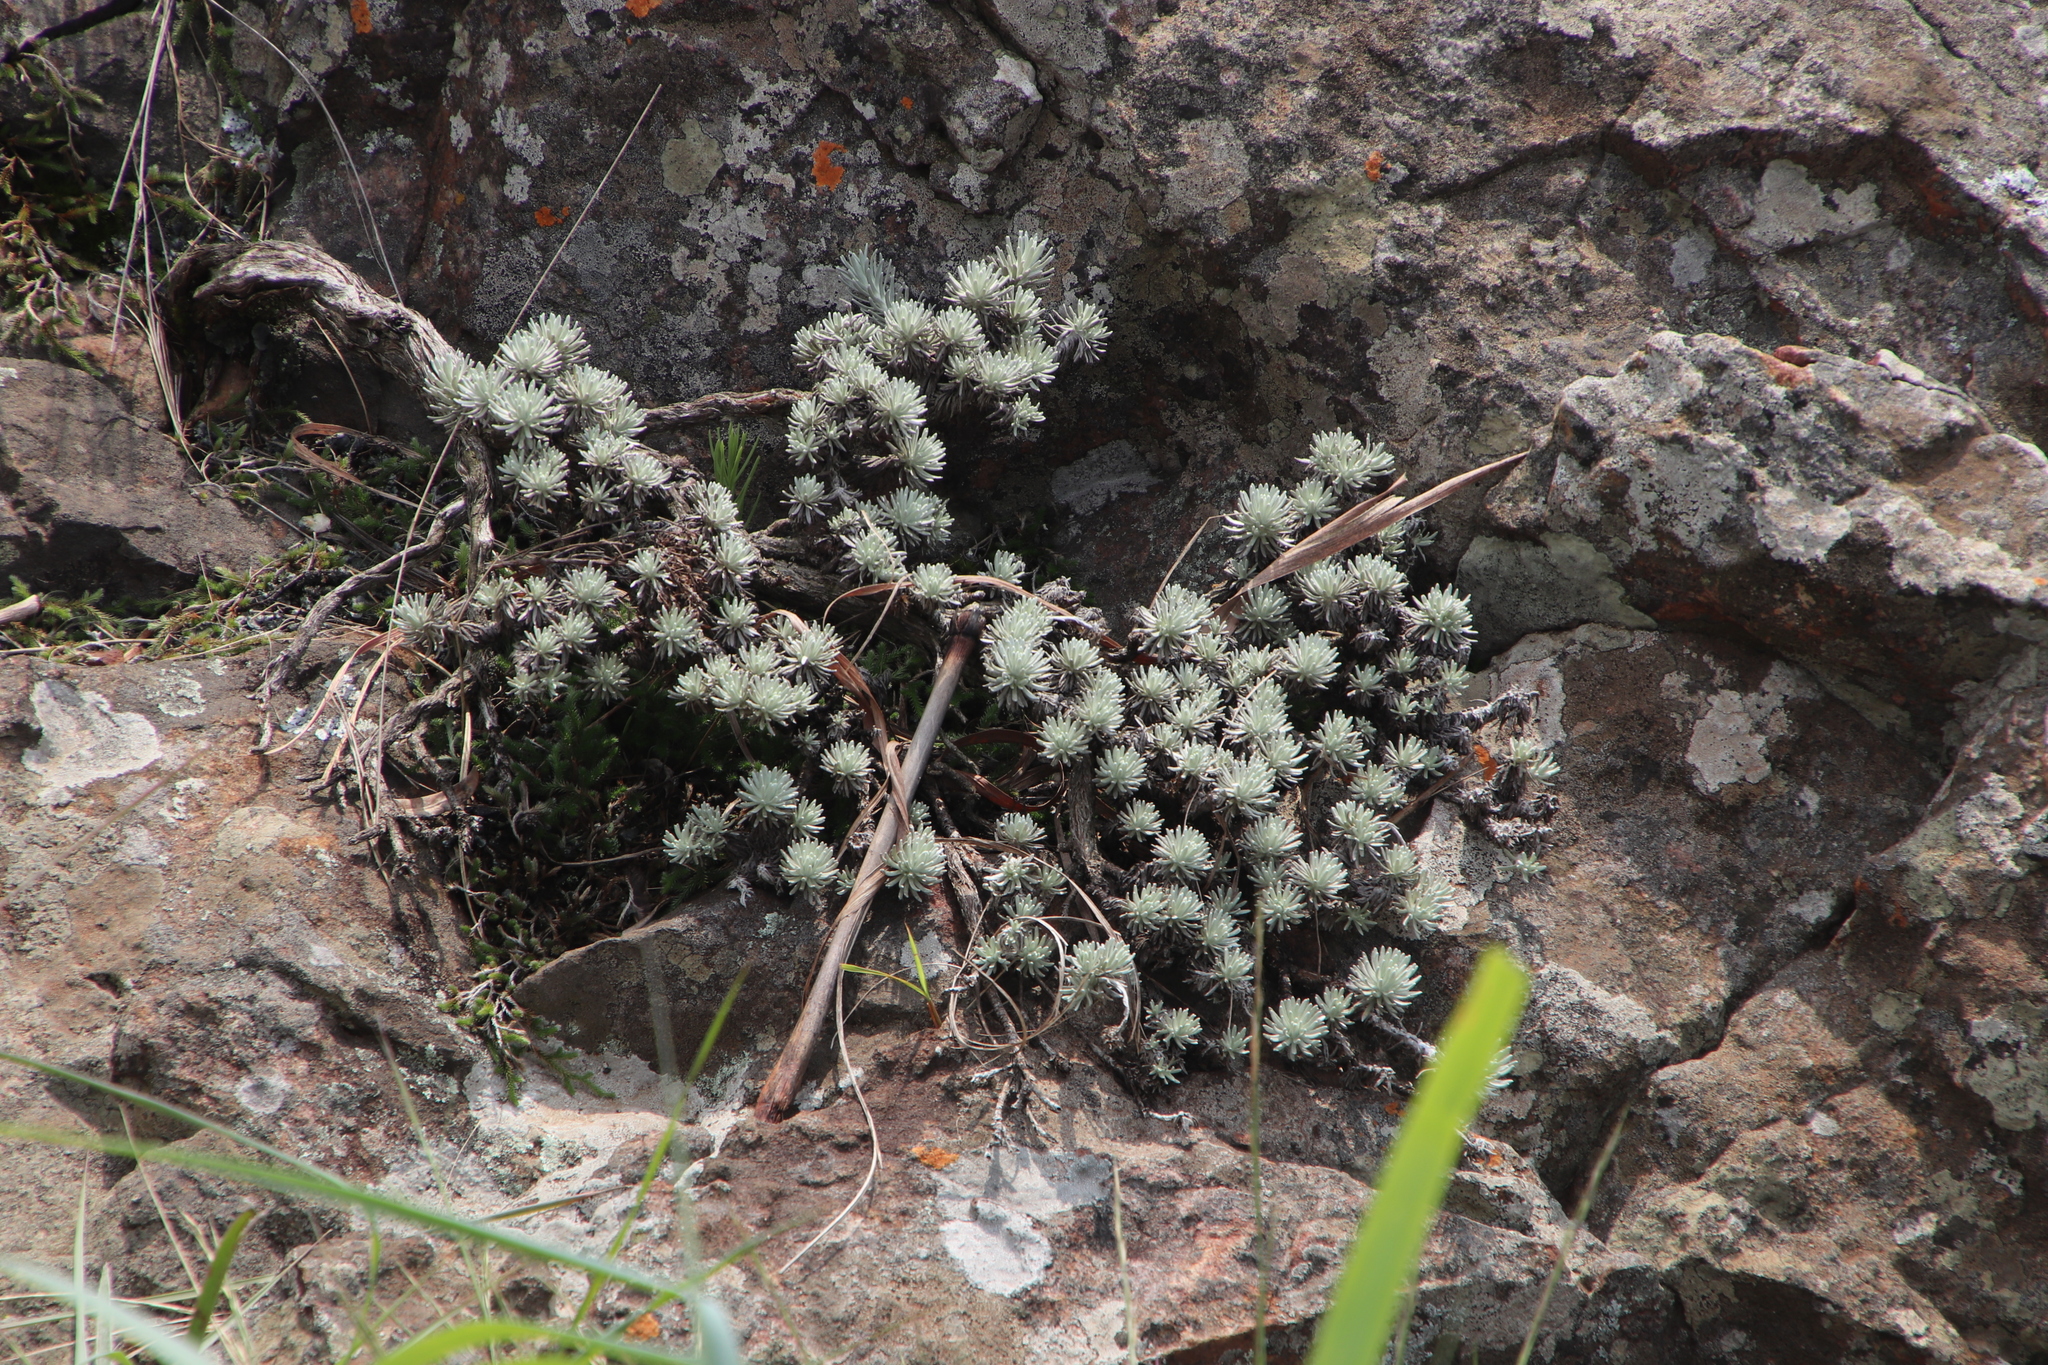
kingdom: Plantae
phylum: Tracheophyta
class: Magnoliopsida
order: Asterales
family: Asteraceae
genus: Helichrysum
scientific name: Helichrysum galpinii
